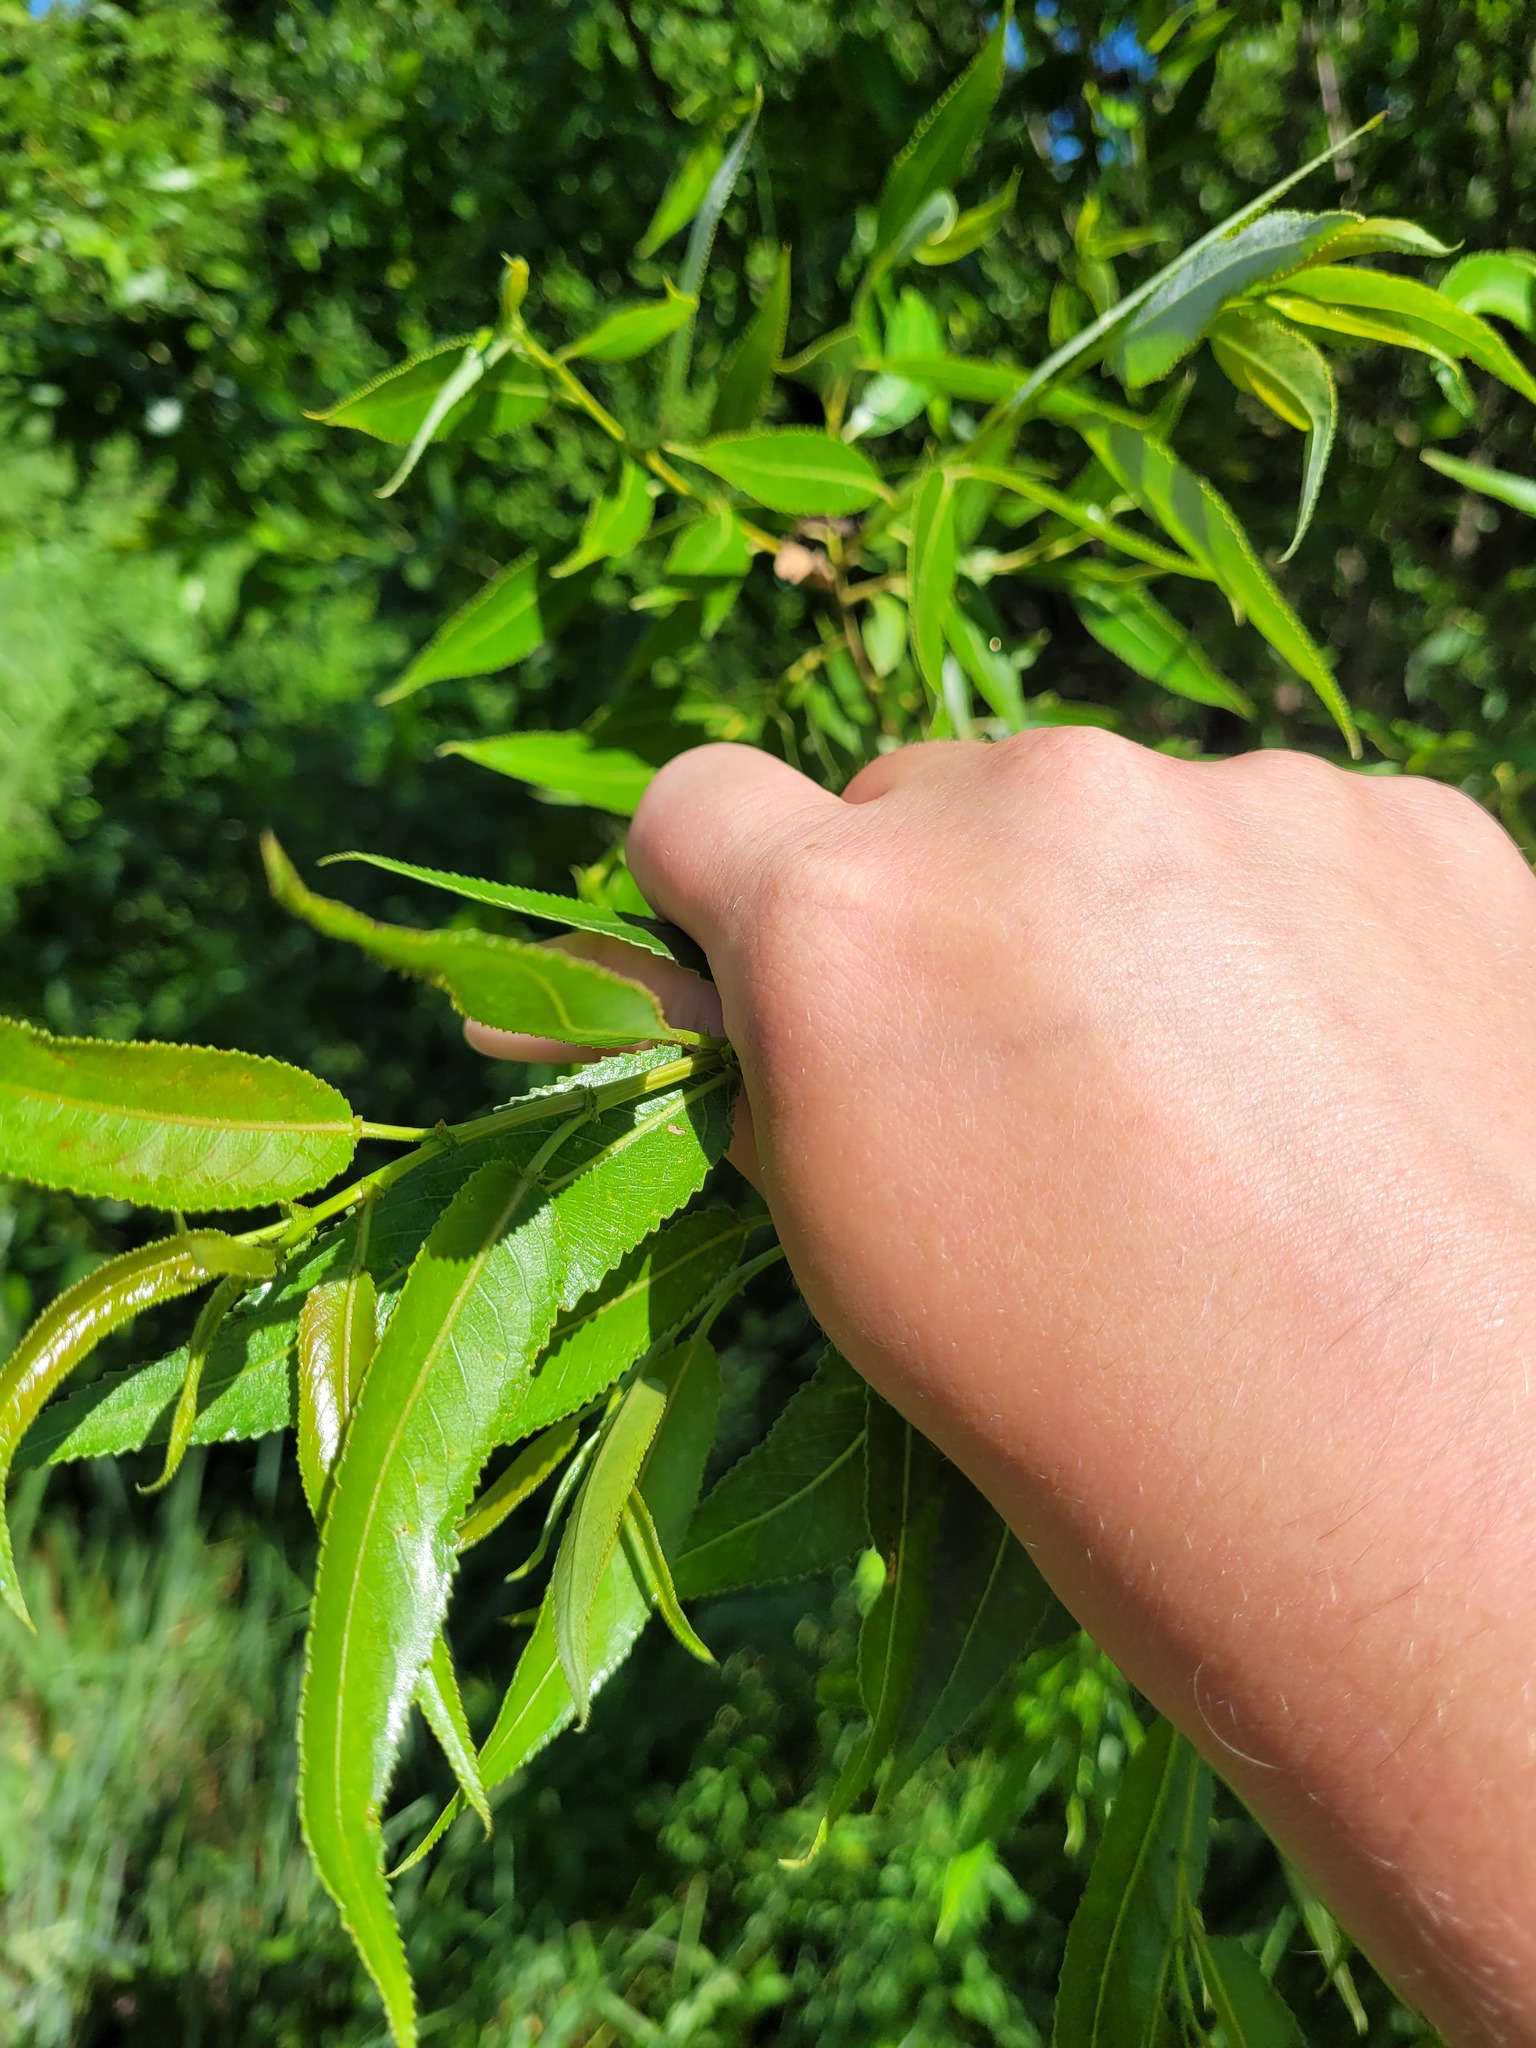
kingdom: Plantae
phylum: Tracheophyta
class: Magnoliopsida
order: Malpighiales
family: Salicaceae
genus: Salix
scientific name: Salix alba
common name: White willow
